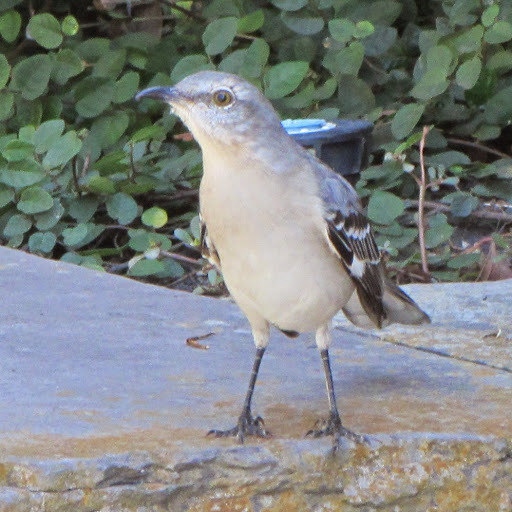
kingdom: Animalia
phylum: Chordata
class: Aves
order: Passeriformes
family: Mimidae
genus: Mimus
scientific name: Mimus polyglottos
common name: Northern mockingbird
